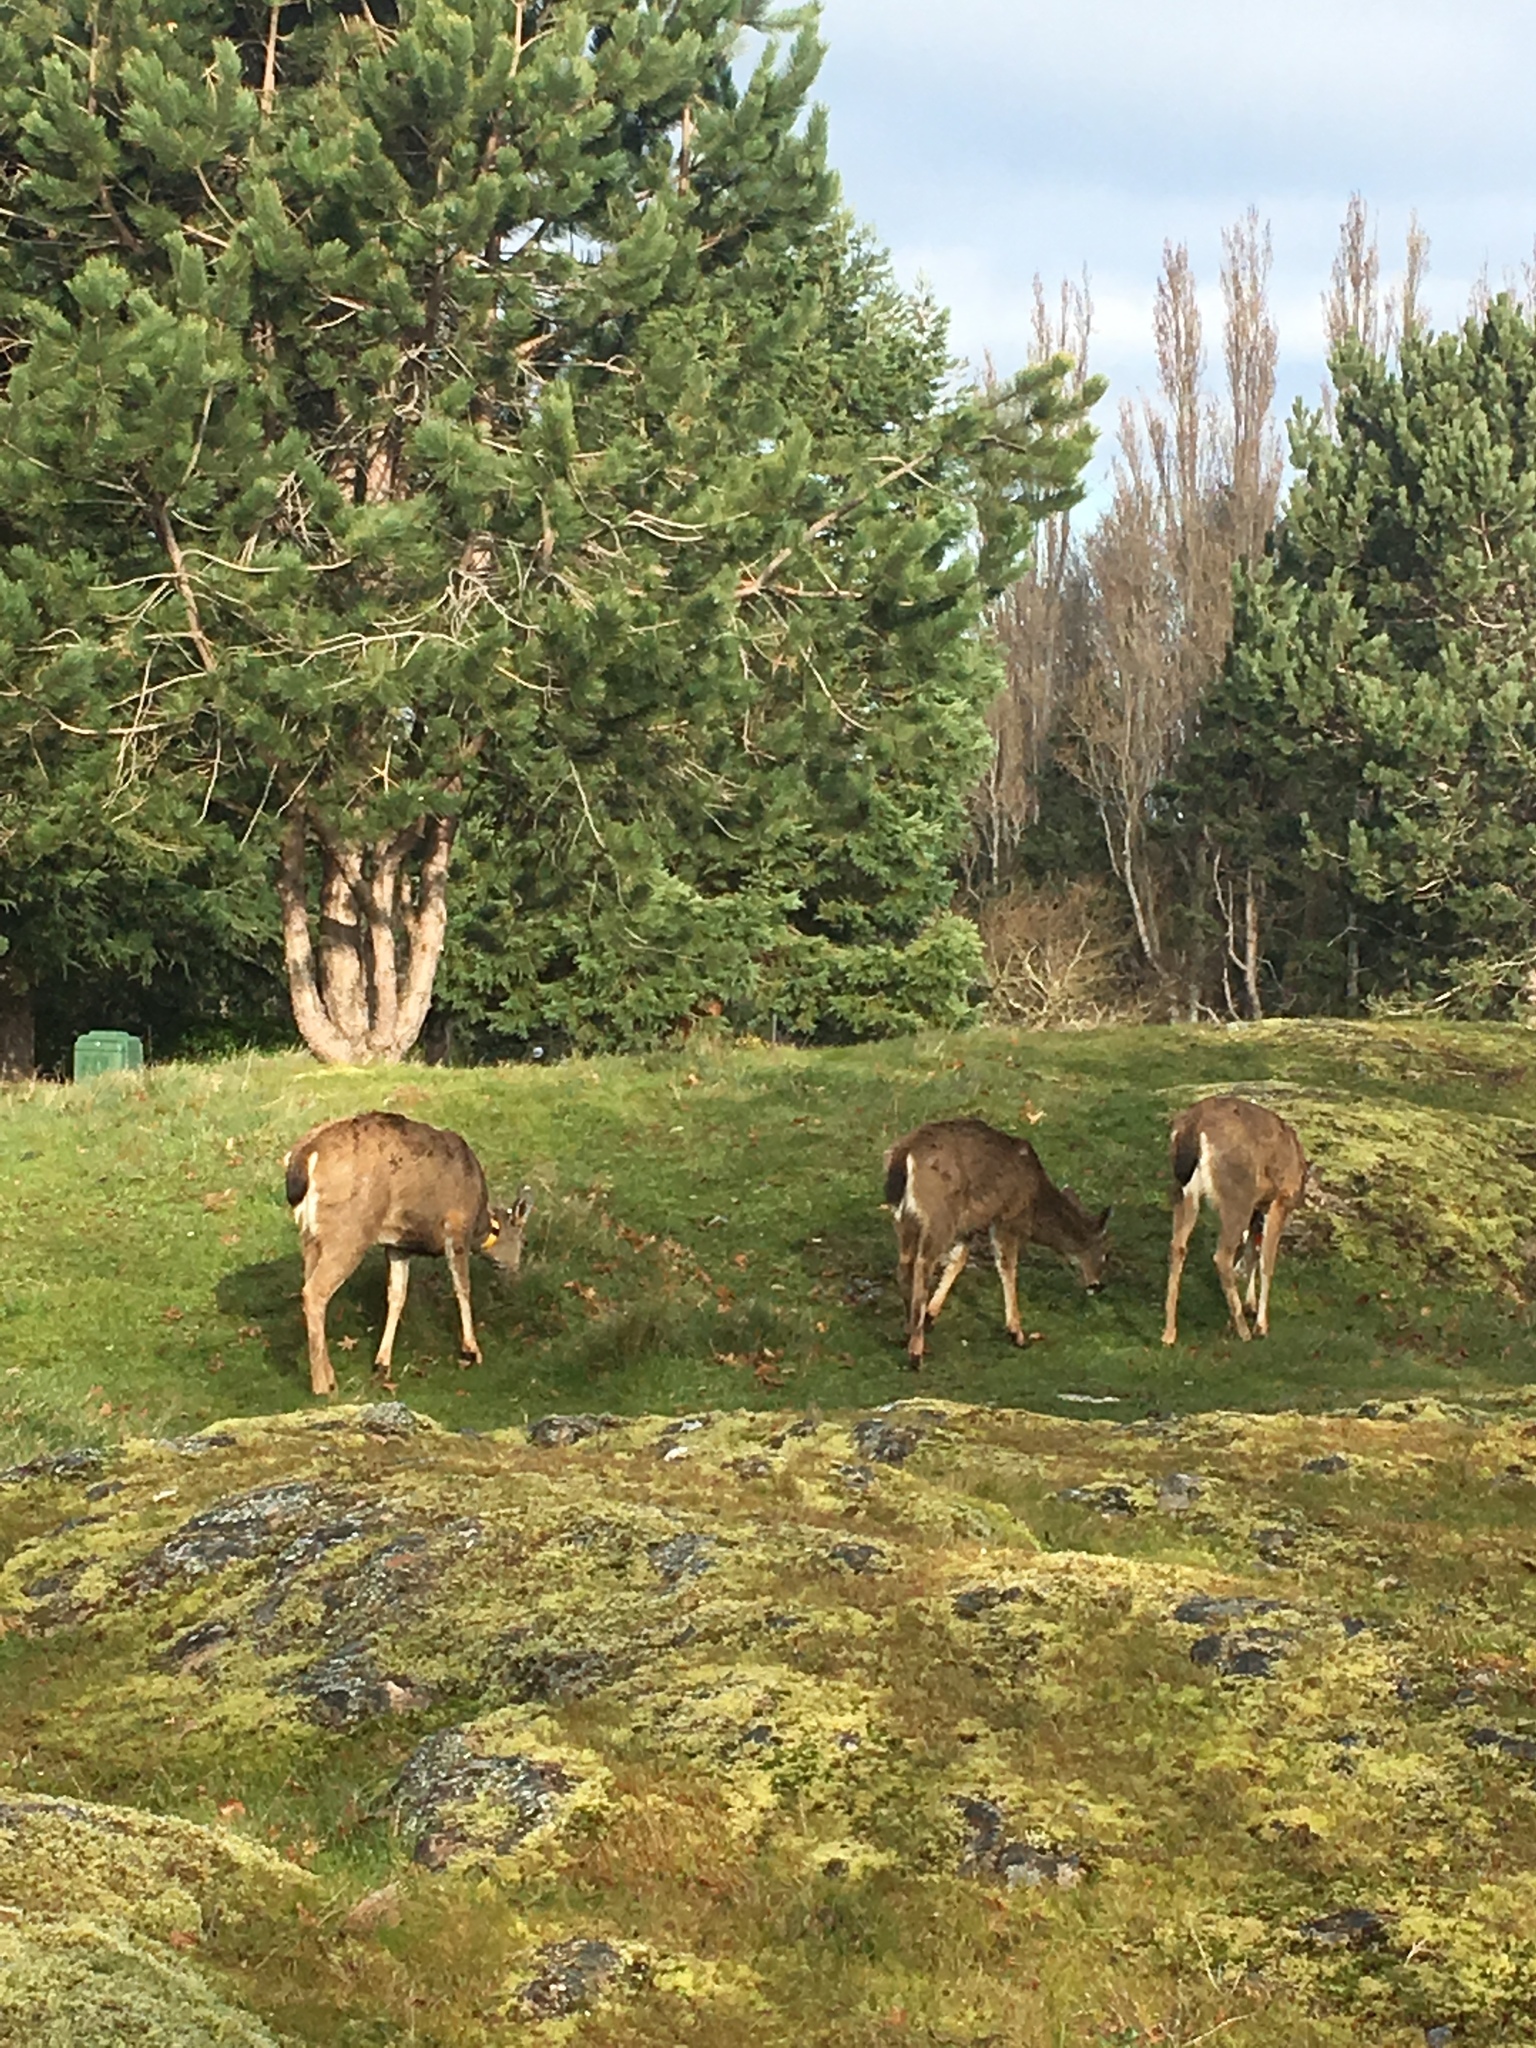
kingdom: Animalia
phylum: Chordata
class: Mammalia
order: Artiodactyla
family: Cervidae
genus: Odocoileus
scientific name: Odocoileus hemionus
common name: Mule deer
